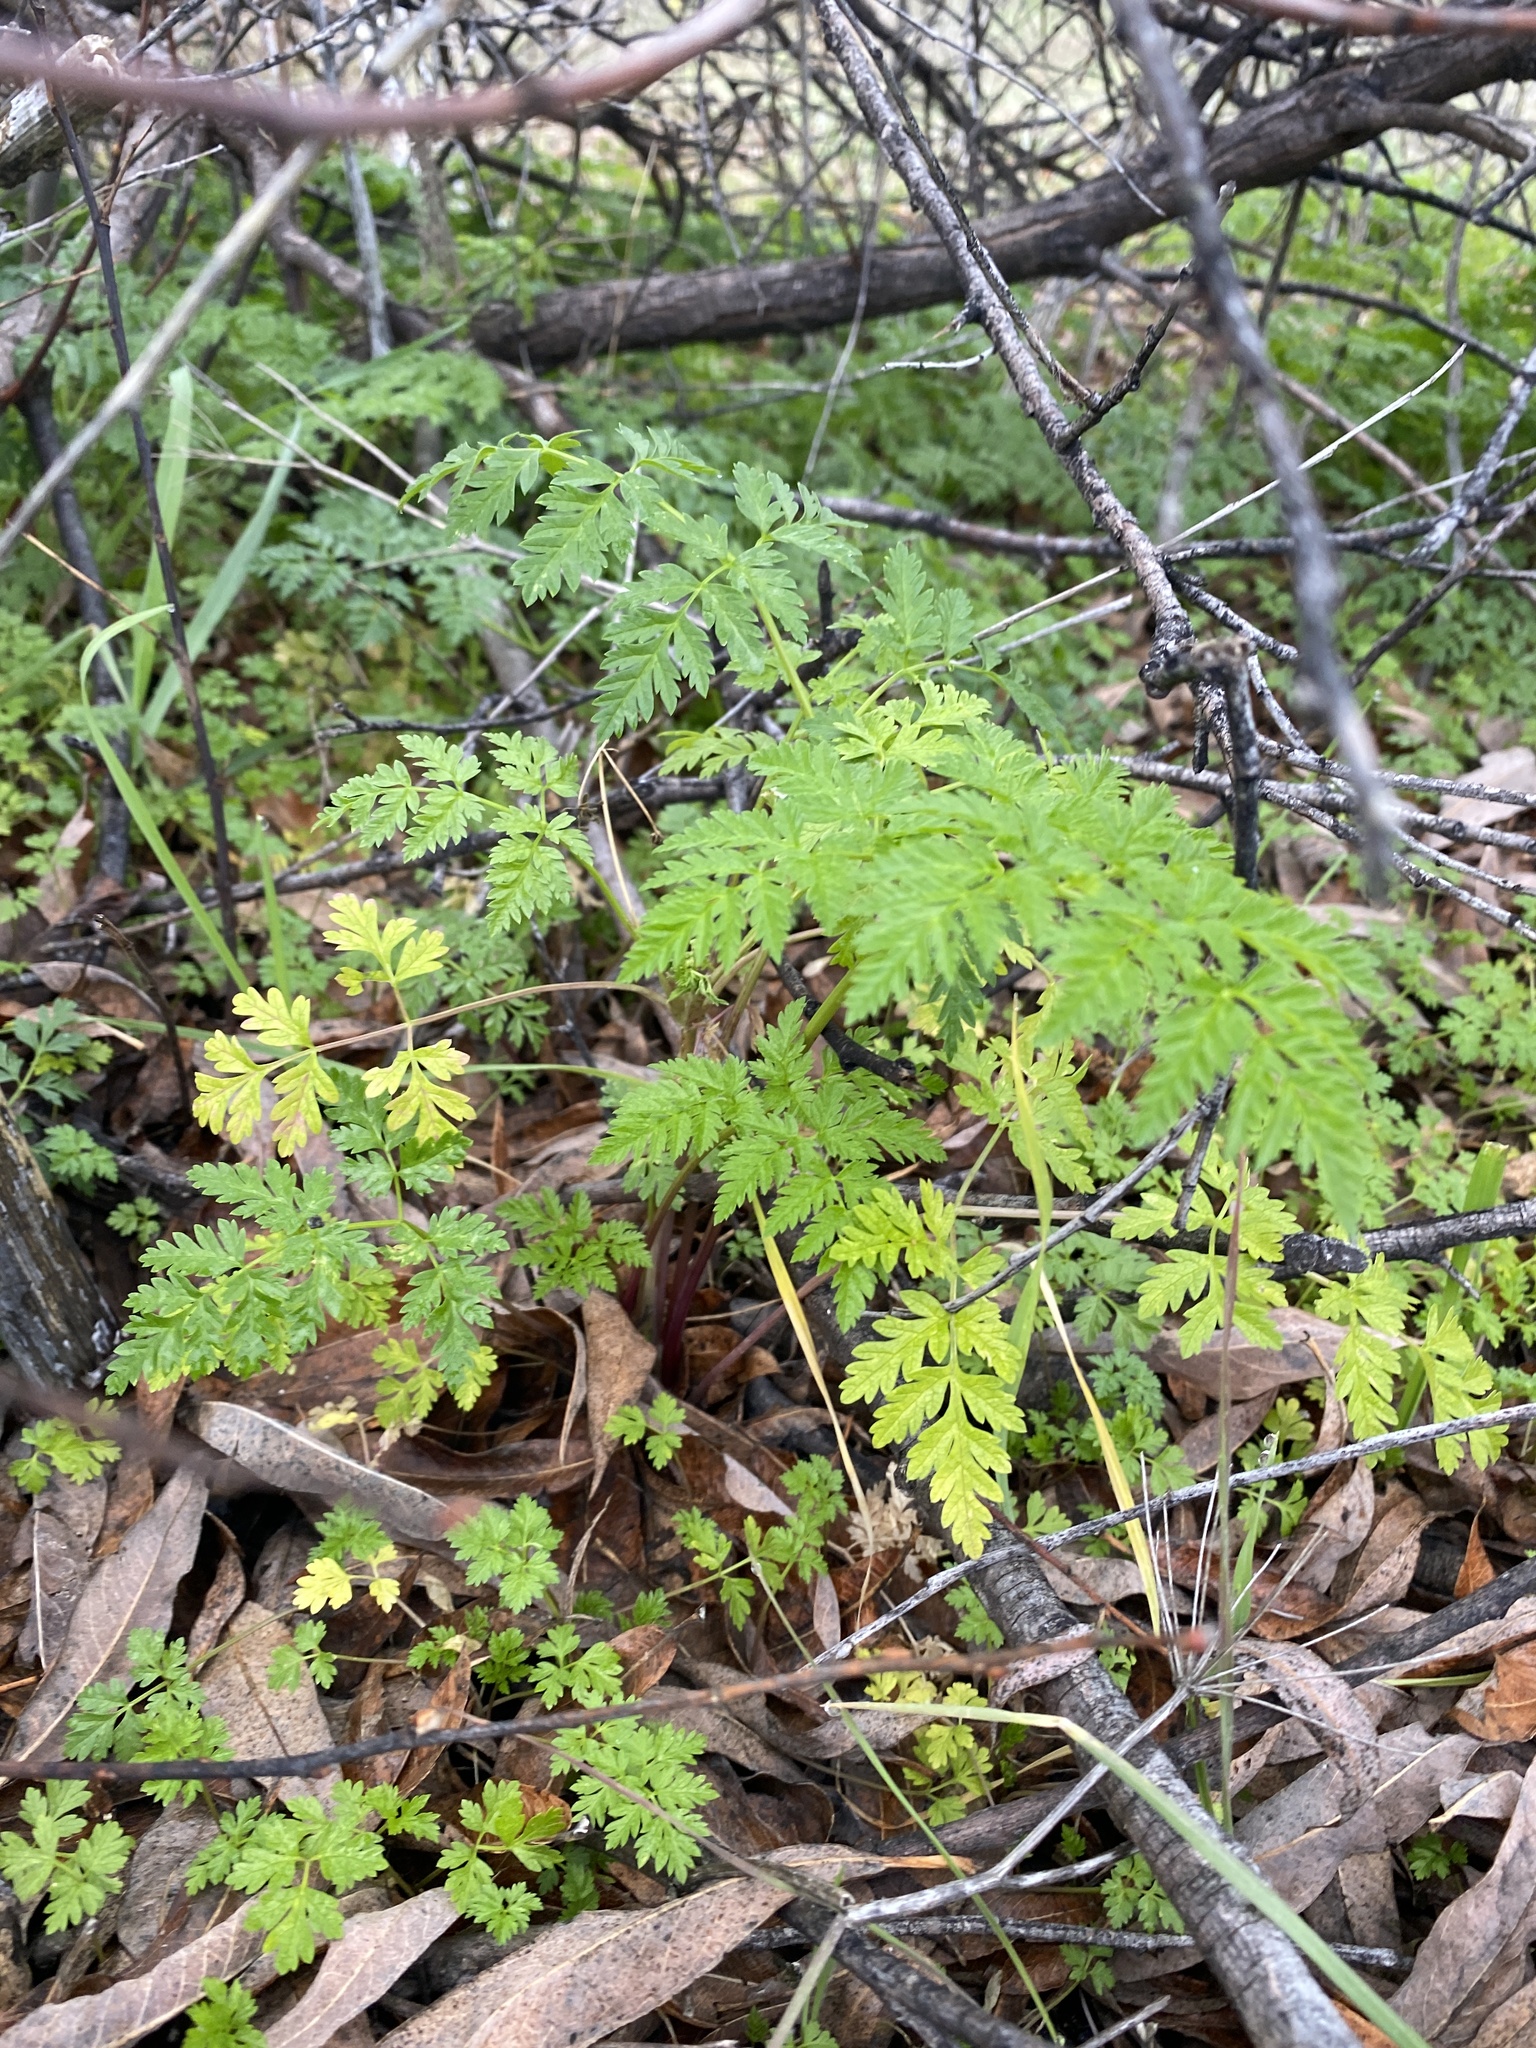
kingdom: Plantae
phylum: Tracheophyta
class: Magnoliopsida
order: Apiales
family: Apiaceae
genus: Conium
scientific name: Conium maculatum
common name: Hemlock
